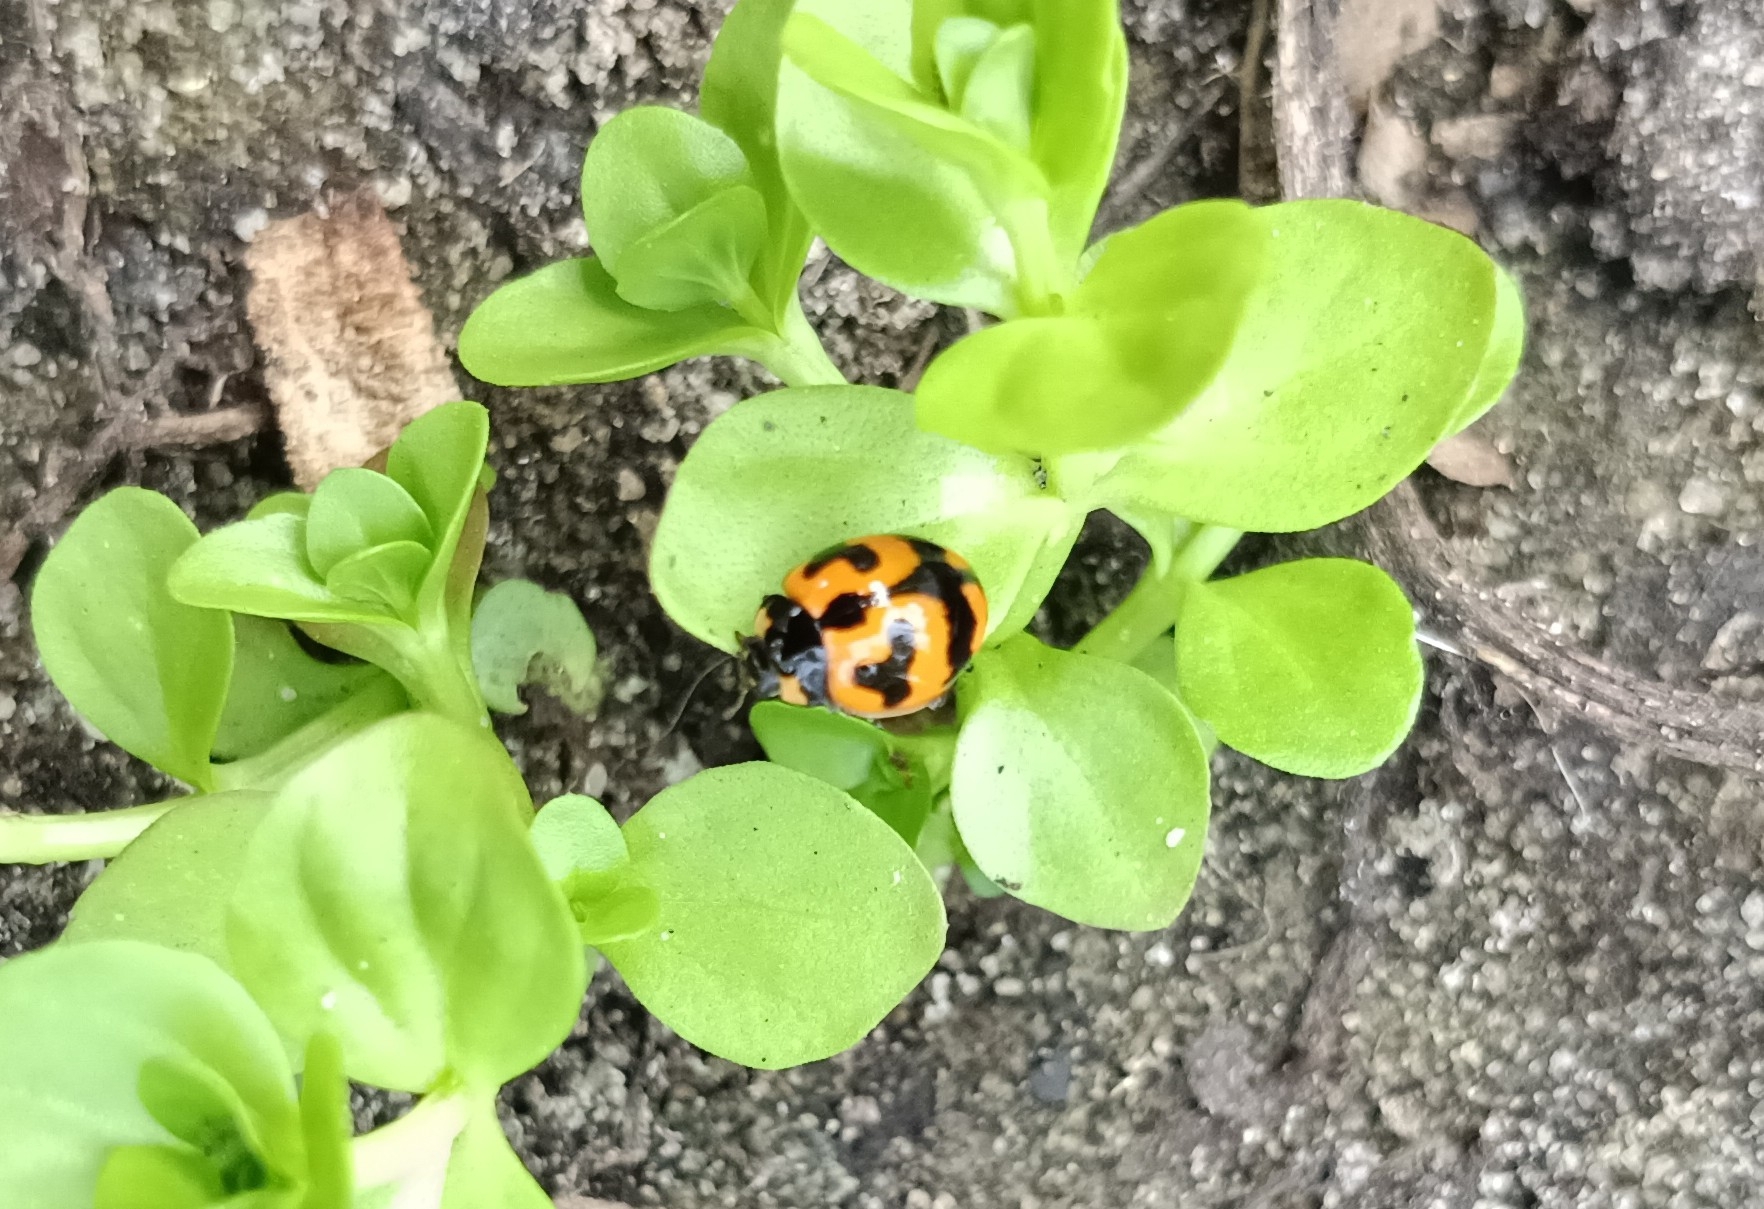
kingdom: Animalia
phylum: Arthropoda
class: Insecta
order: Coleoptera
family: Coccinellidae
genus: Coccinella
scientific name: Coccinella transversalis
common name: Transverse lady beetle
